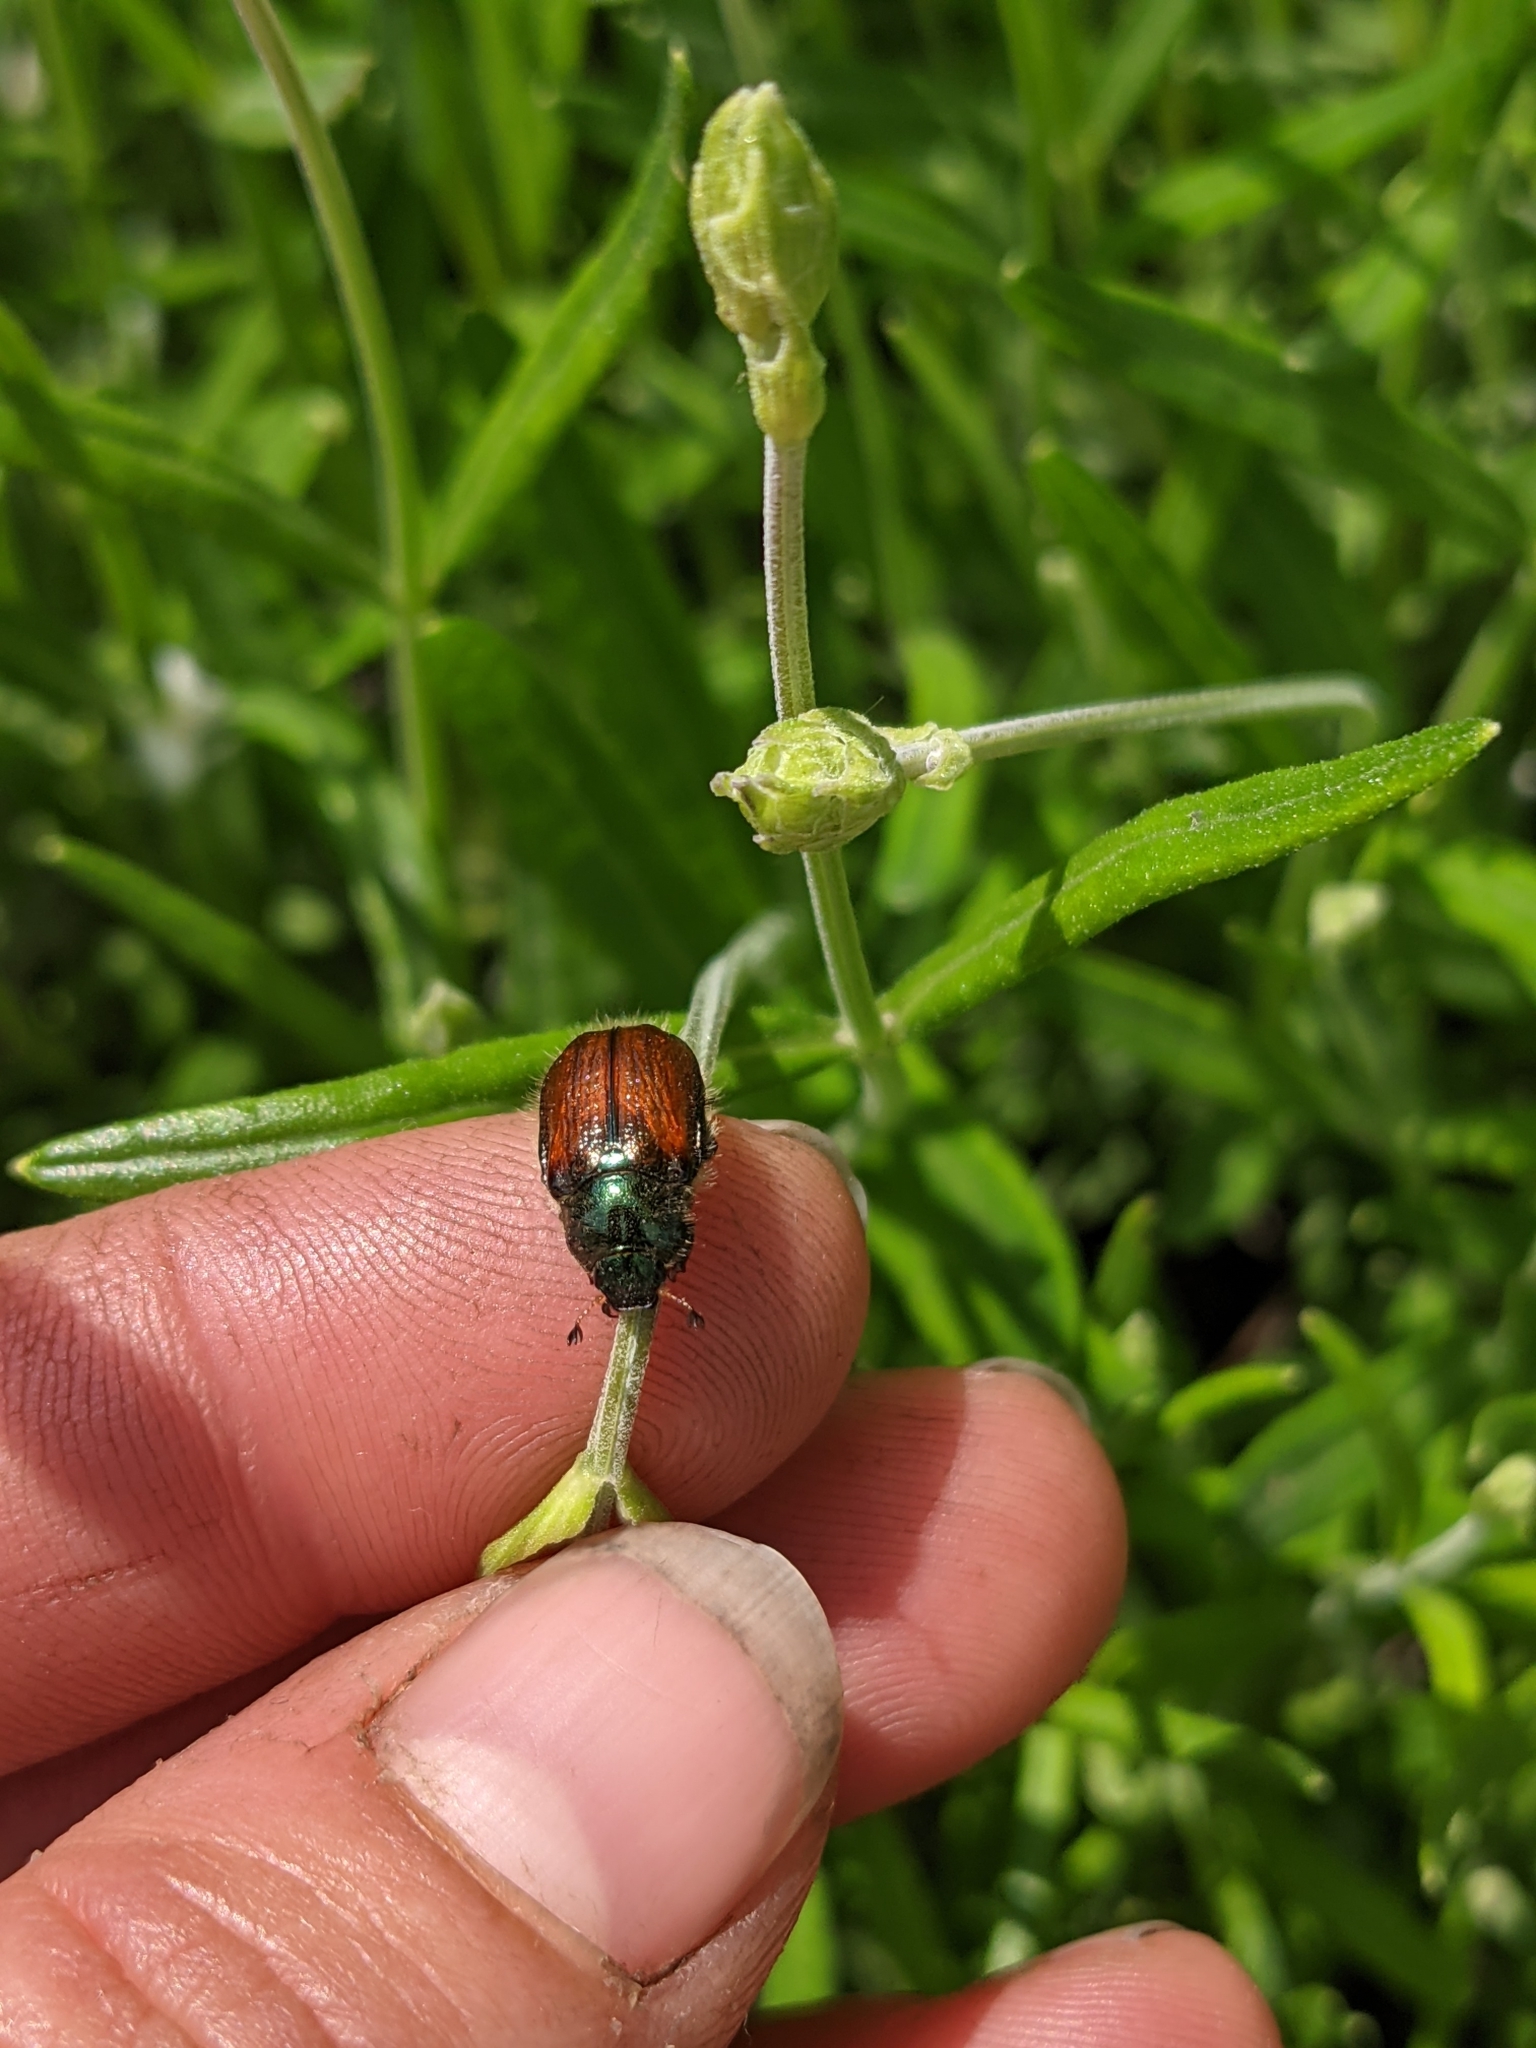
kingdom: Animalia
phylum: Arthropoda
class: Insecta
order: Coleoptera
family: Scarabaeidae
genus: Phyllopertha
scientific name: Phyllopertha horticola
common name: Garden chafer
